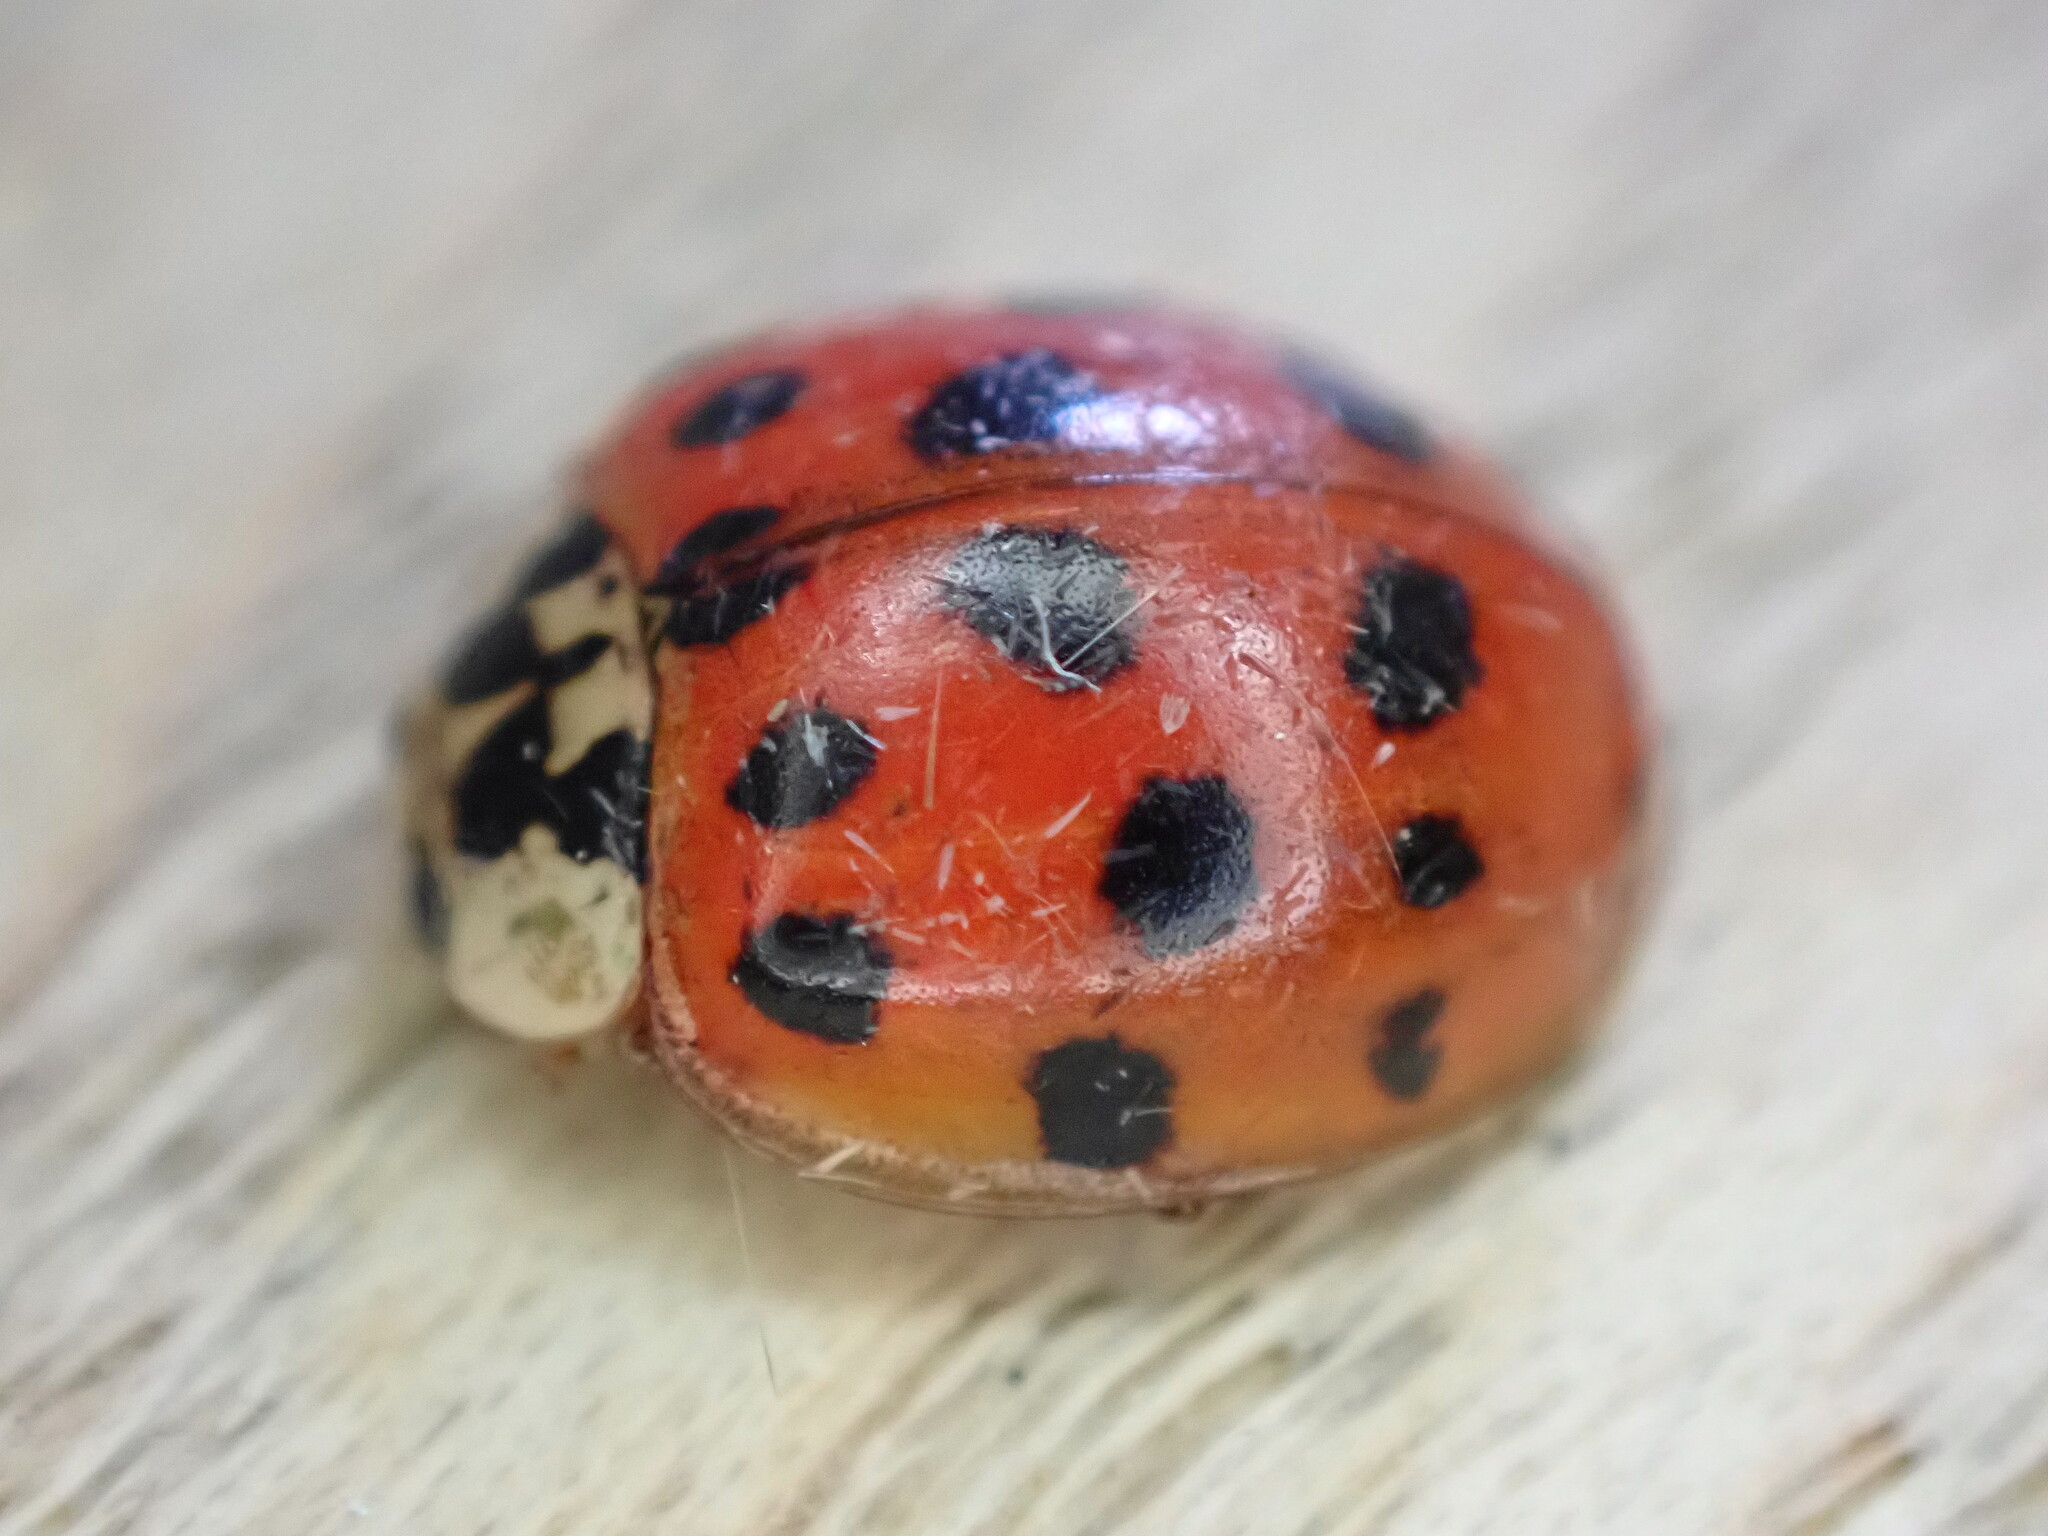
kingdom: Animalia
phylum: Arthropoda
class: Insecta
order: Coleoptera
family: Coccinellidae
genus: Harmonia
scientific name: Harmonia axyridis
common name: Harlequin ladybird
